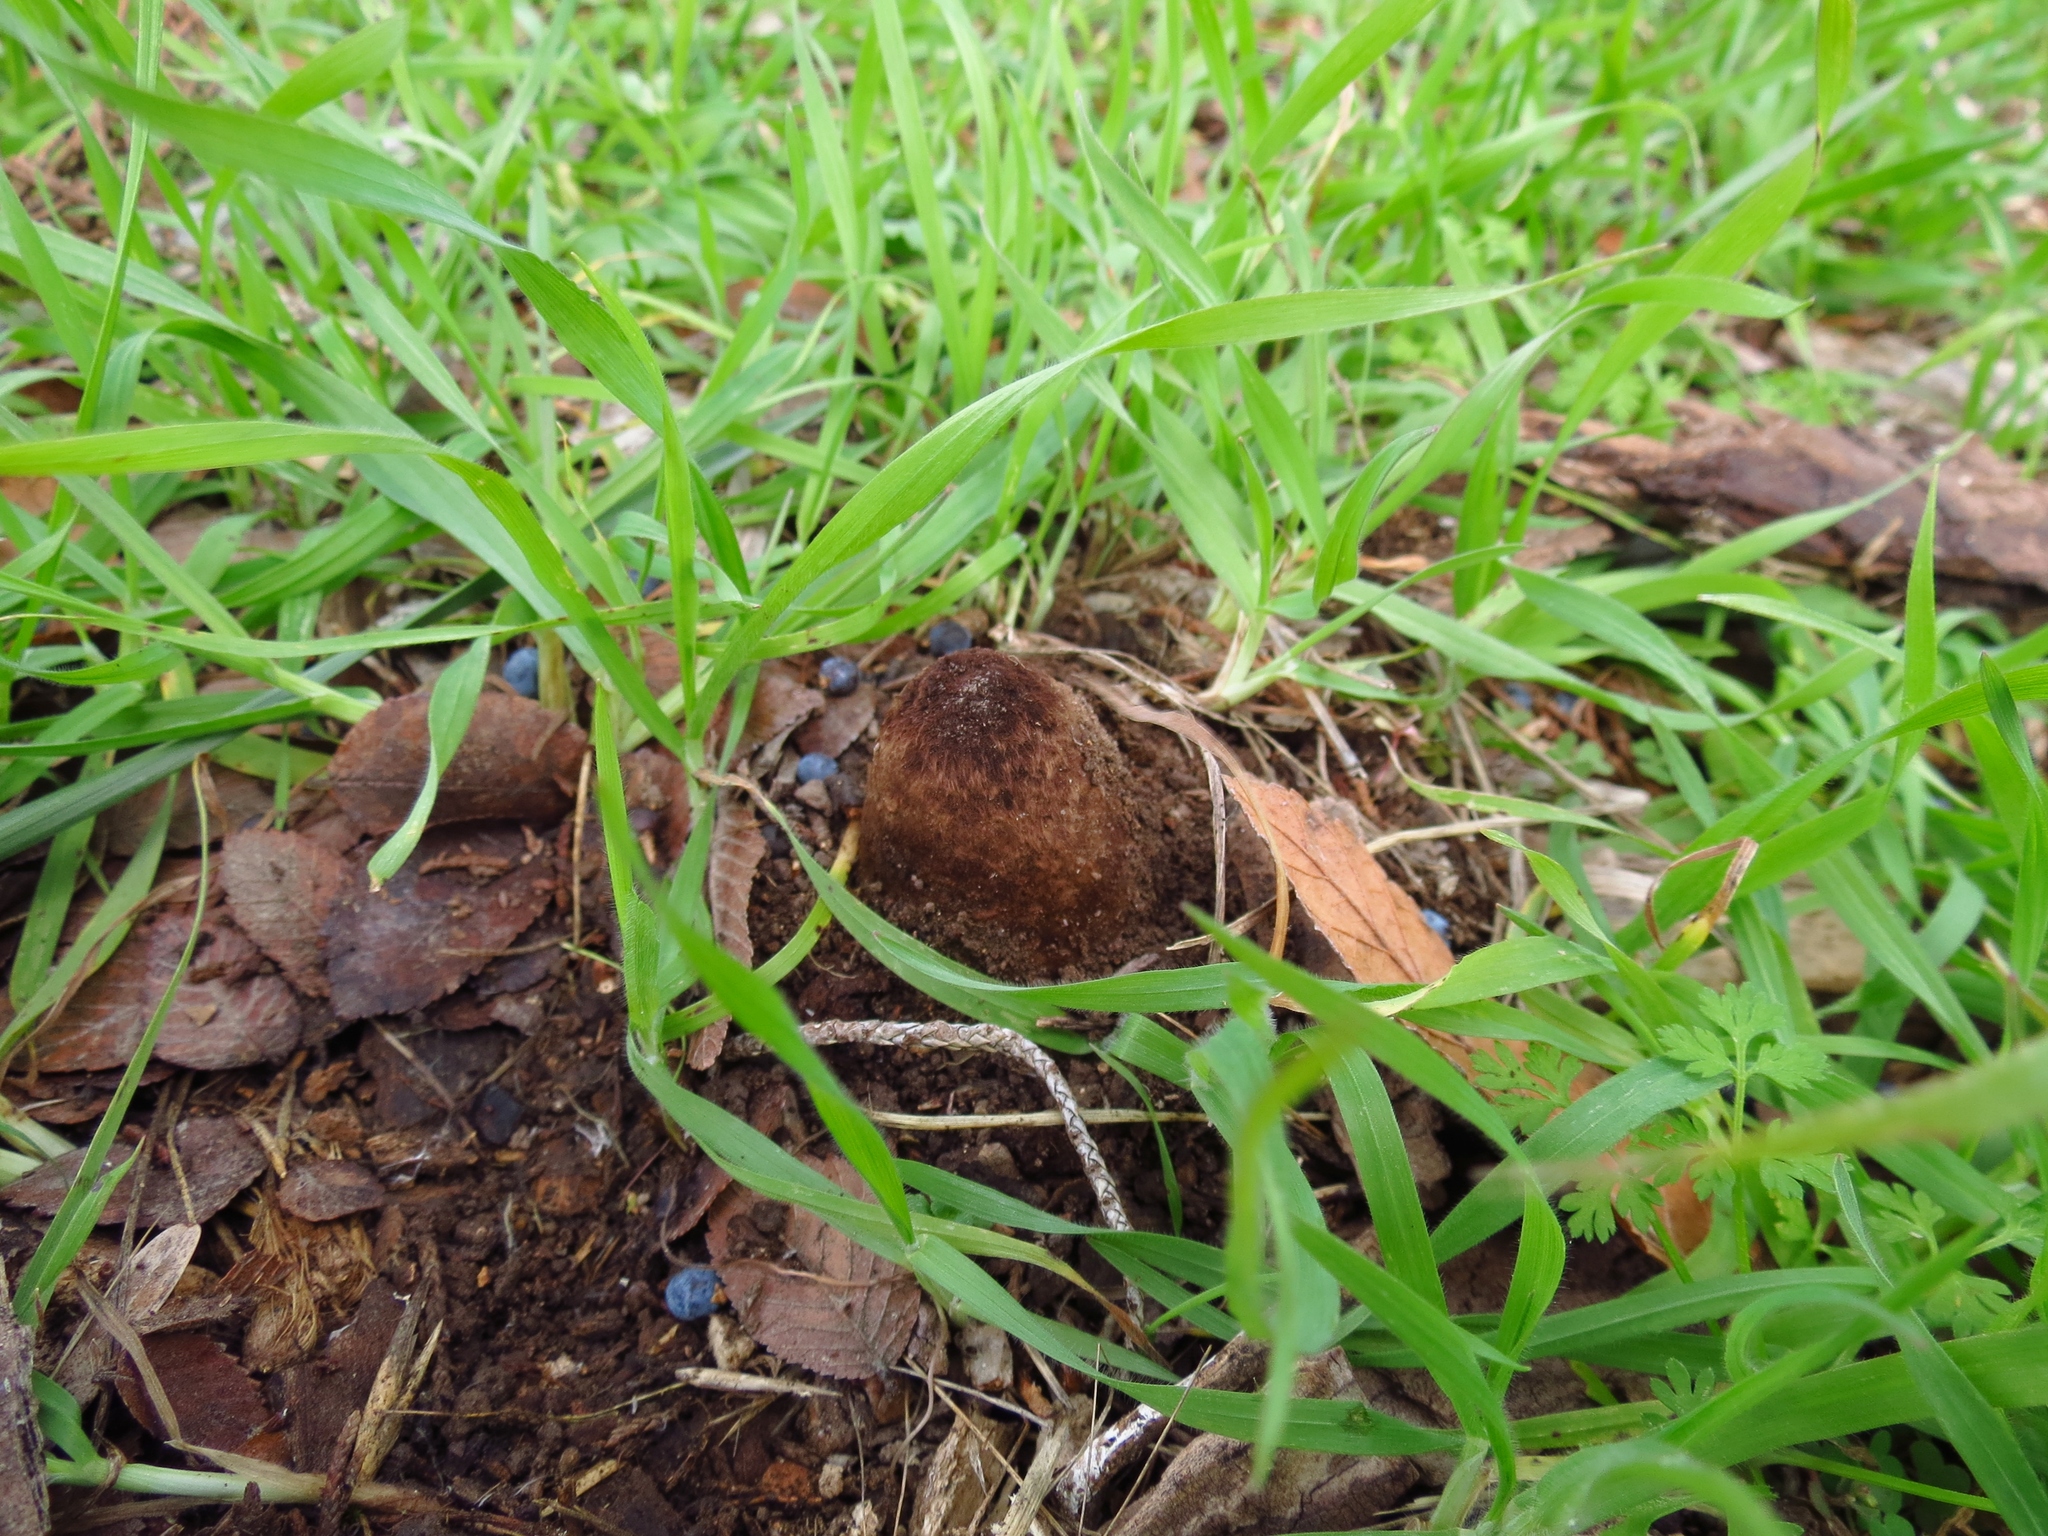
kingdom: Fungi
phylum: Ascomycota
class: Pezizomycetes
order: Pezizales
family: Chorioactidaceae
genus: Chorioactis
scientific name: Chorioactis geaster
